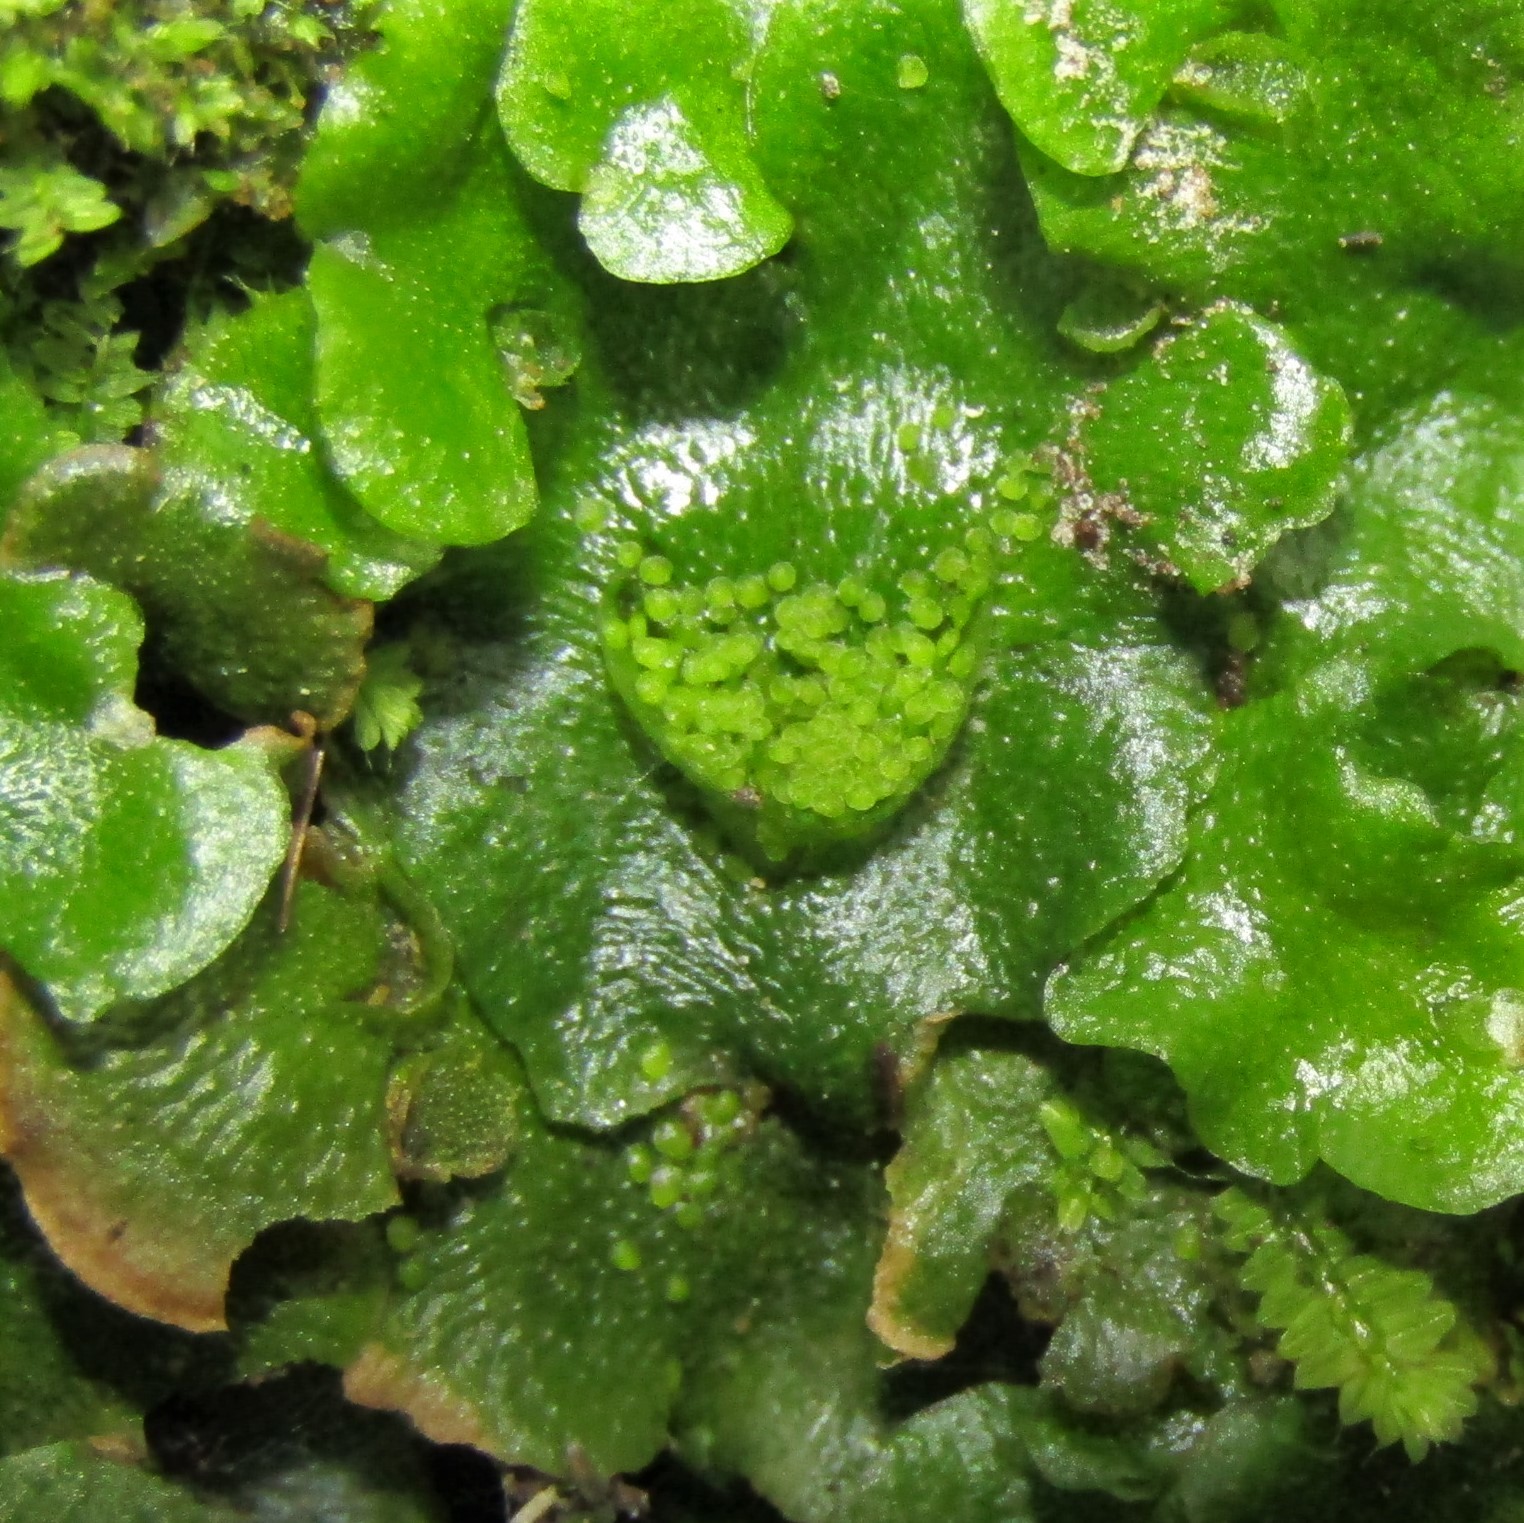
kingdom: Plantae
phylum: Marchantiophyta
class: Marchantiopsida
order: Lunulariales
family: Lunulariaceae
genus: Lunularia
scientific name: Lunularia cruciata
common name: Crescent-cup liverwort
